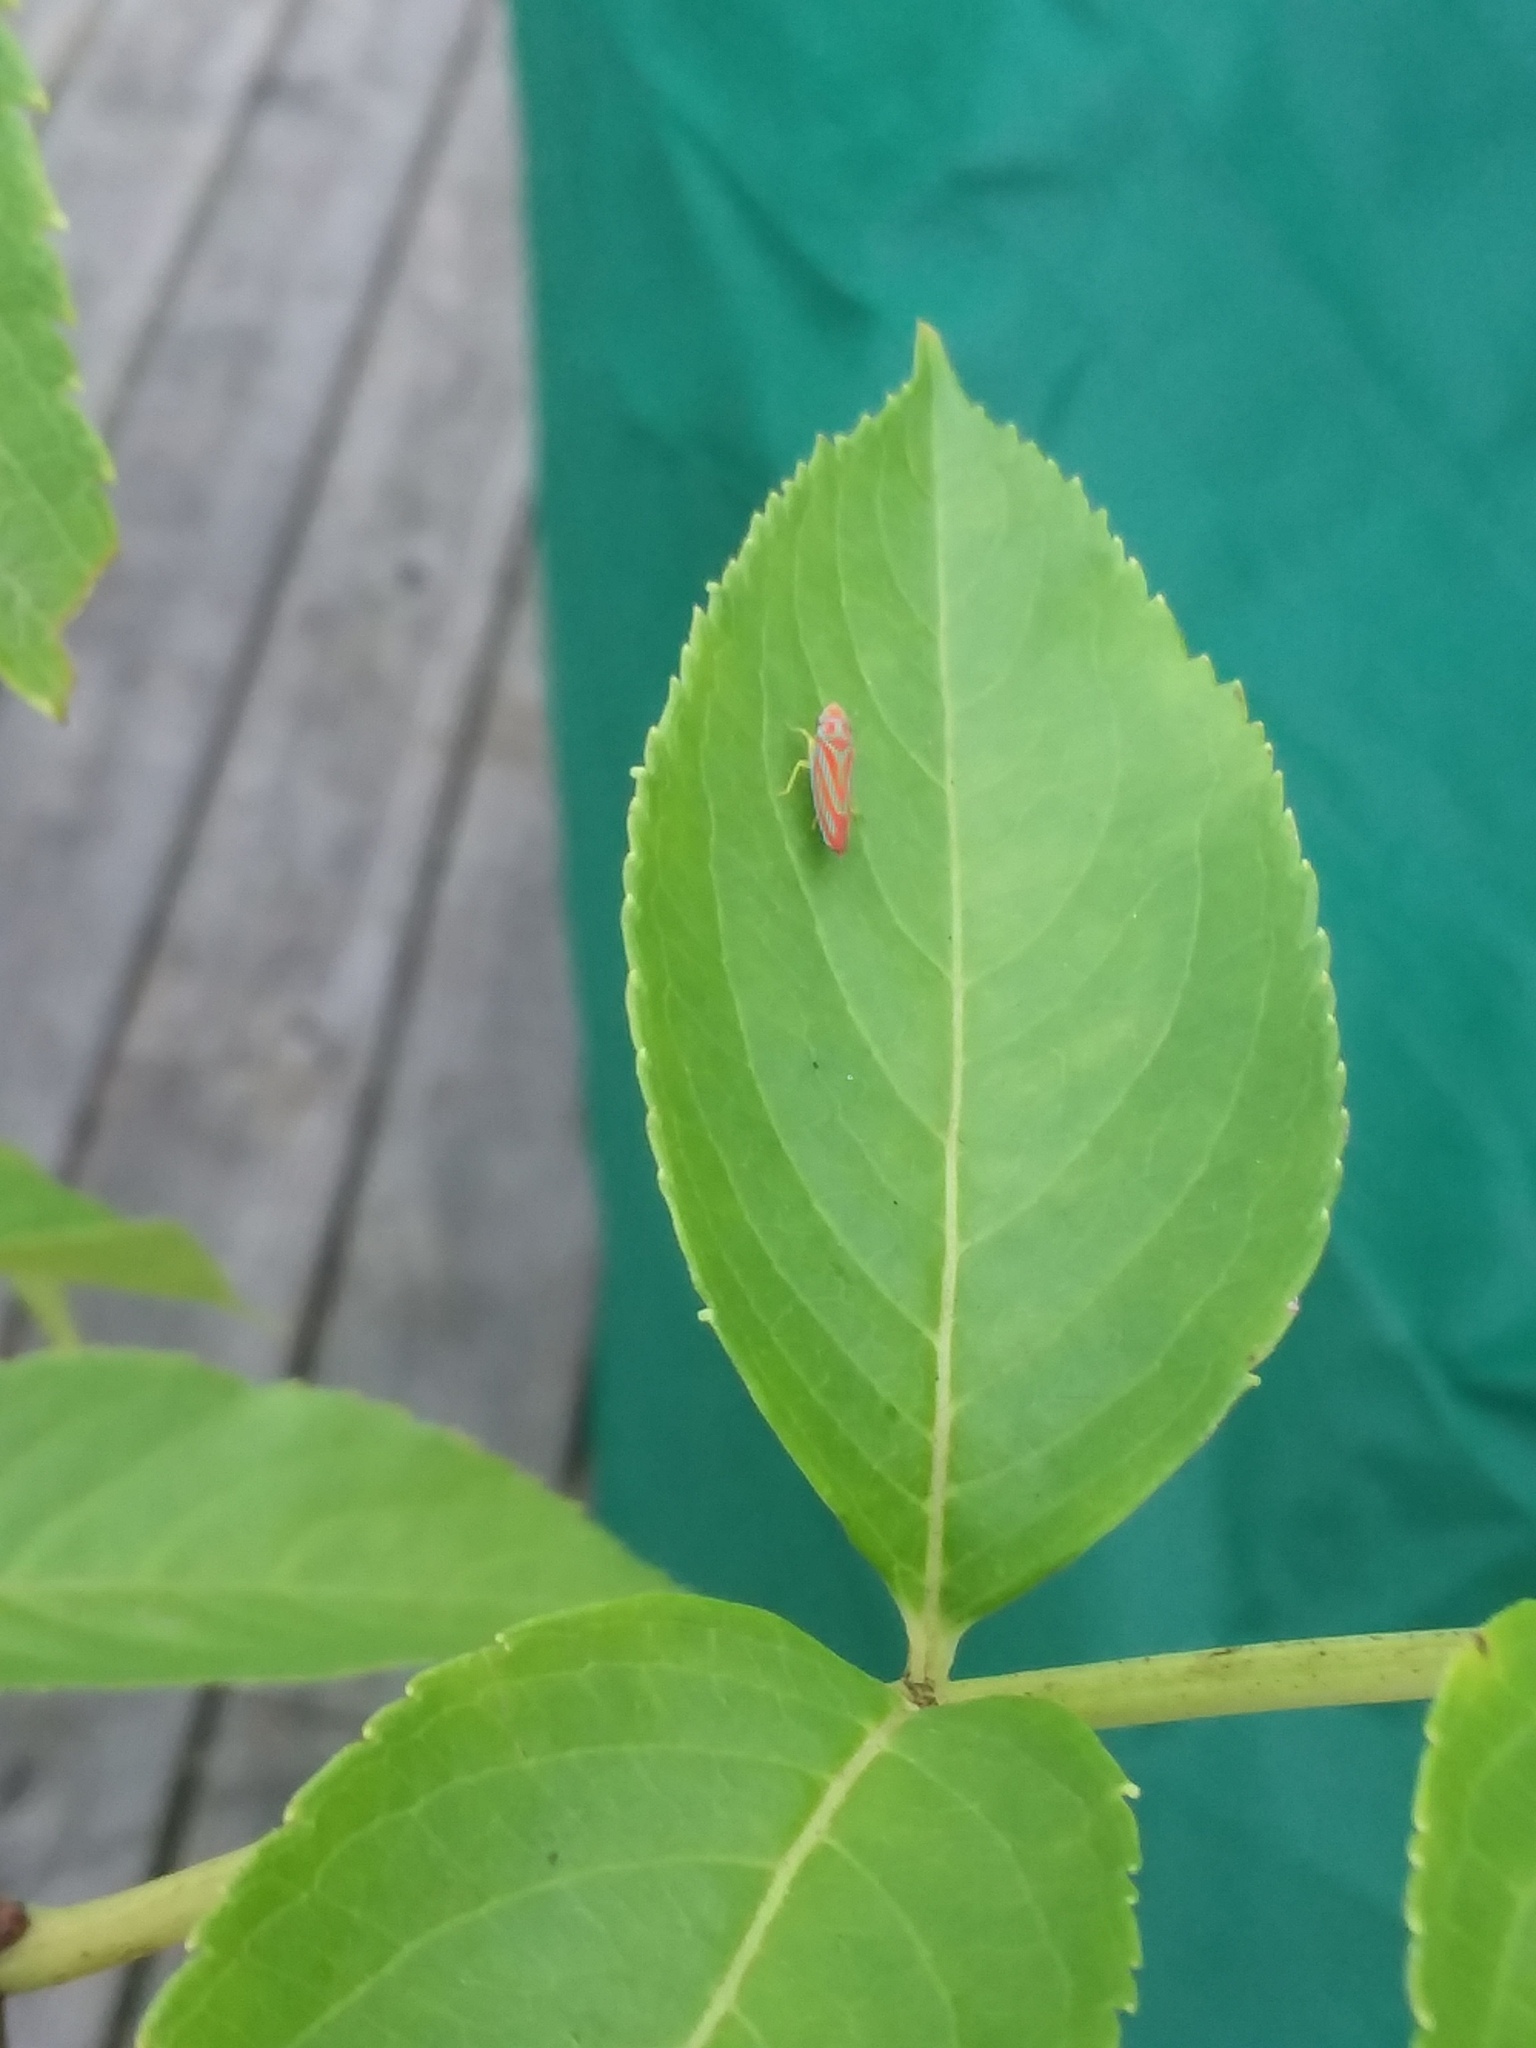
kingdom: Animalia
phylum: Arthropoda
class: Insecta
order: Hemiptera
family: Cicadellidae
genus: Graphocephala
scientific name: Graphocephala coccinea
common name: Candy-striped leafhopper
